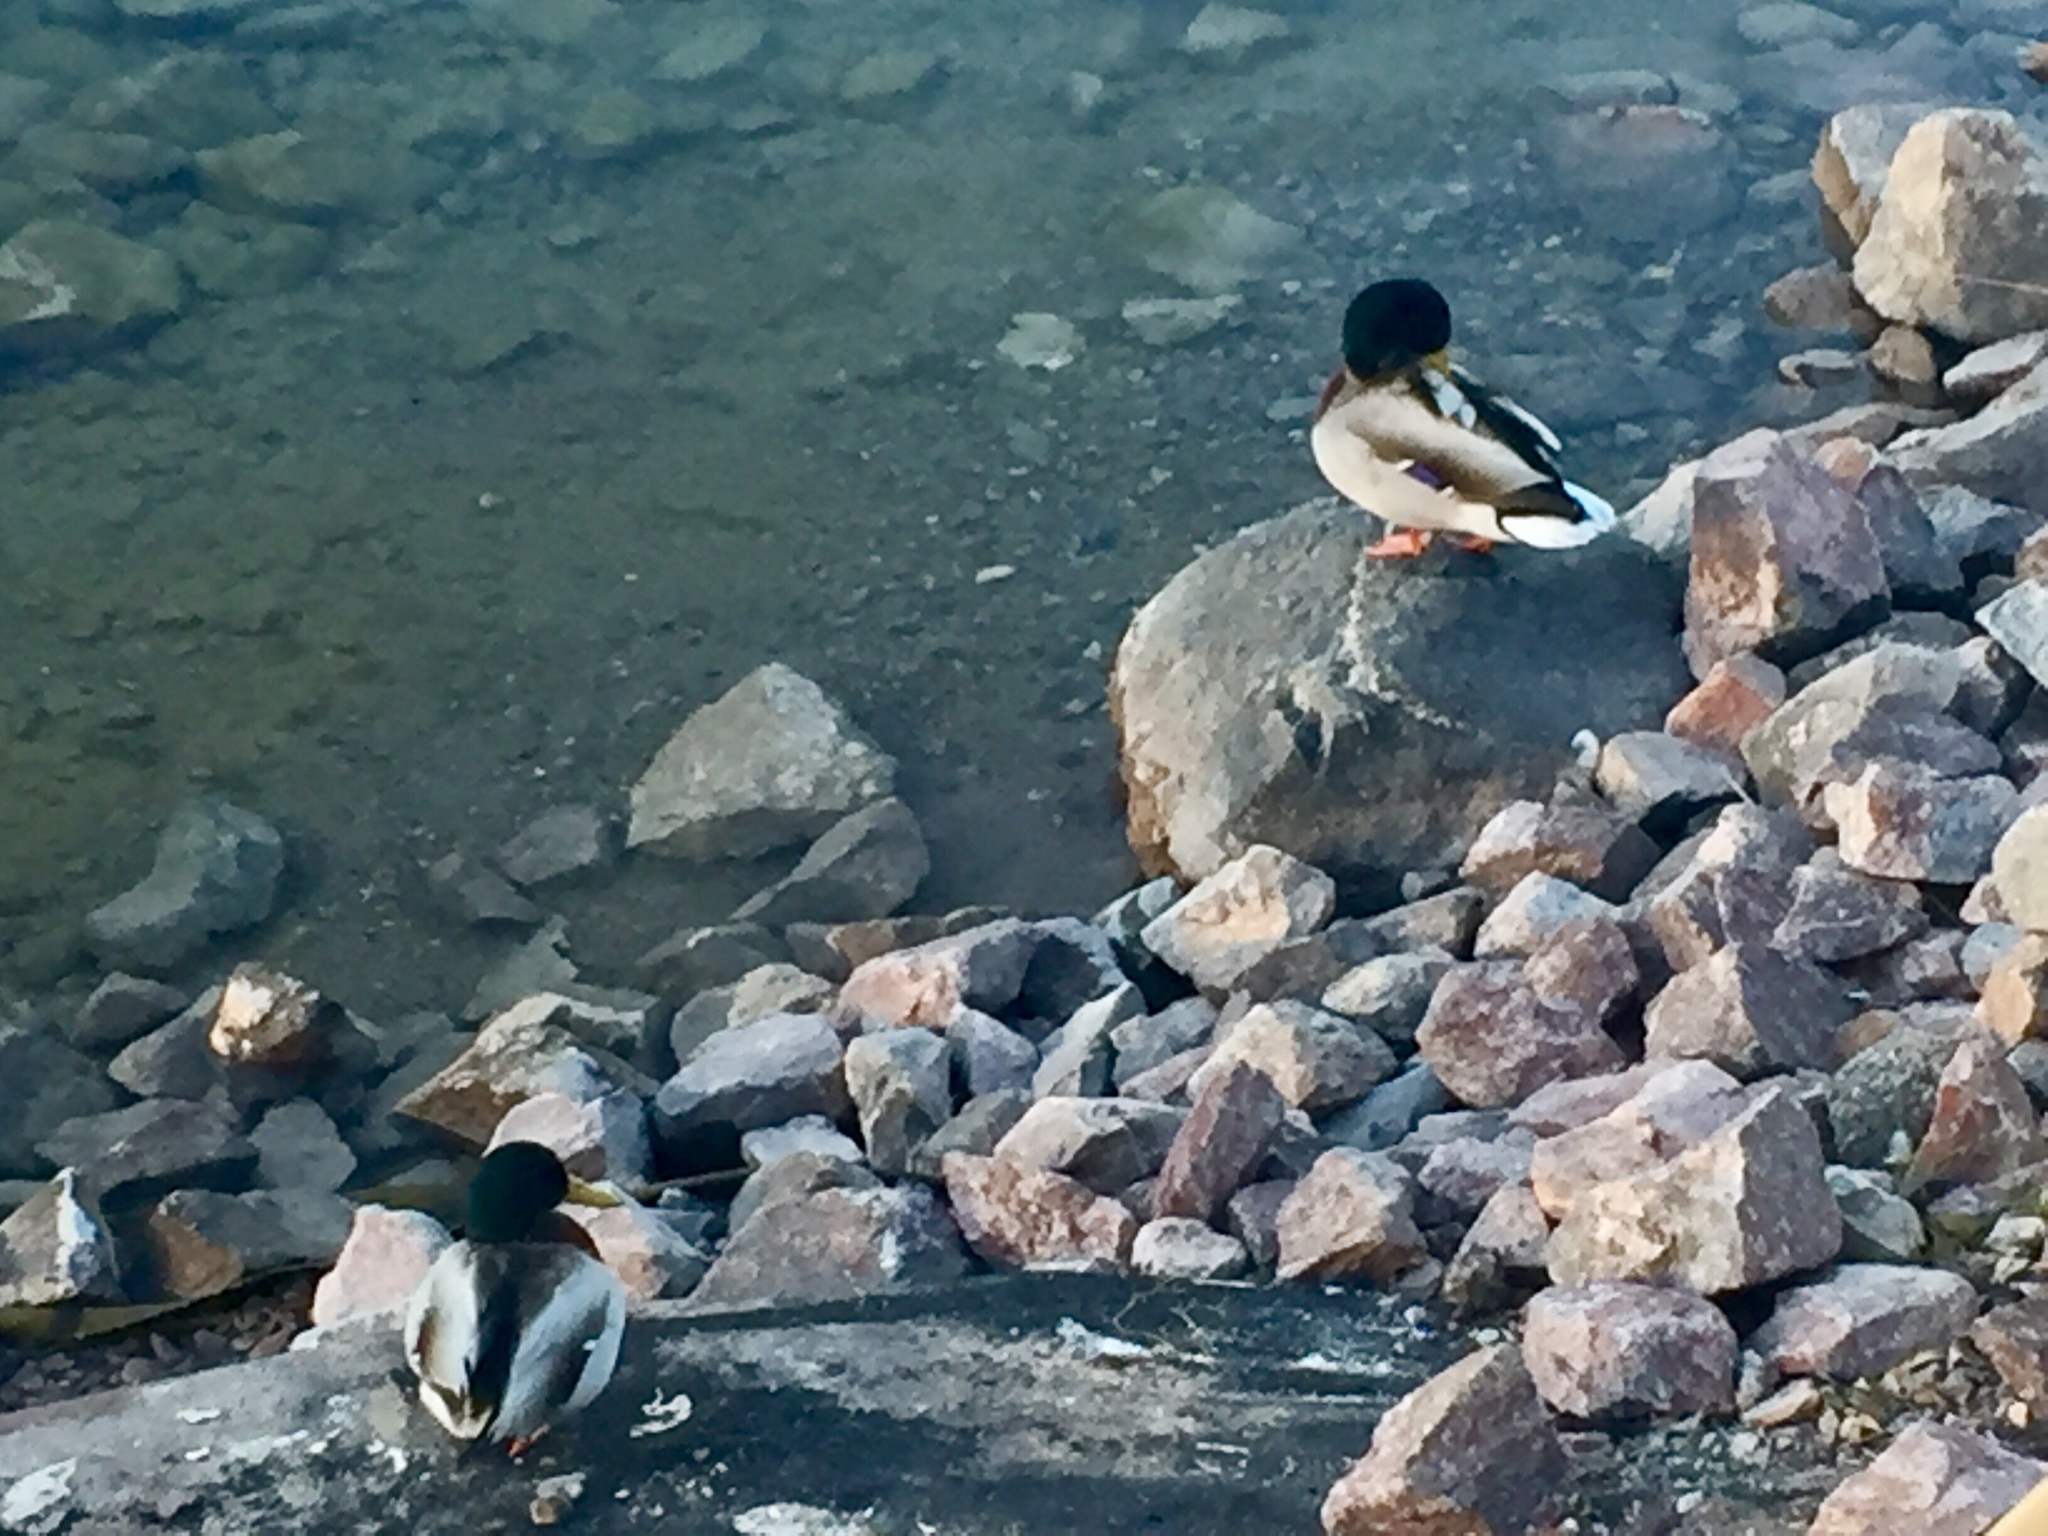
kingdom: Animalia
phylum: Chordata
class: Aves
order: Anseriformes
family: Anatidae
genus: Anas
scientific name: Anas platyrhynchos
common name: Mallard
